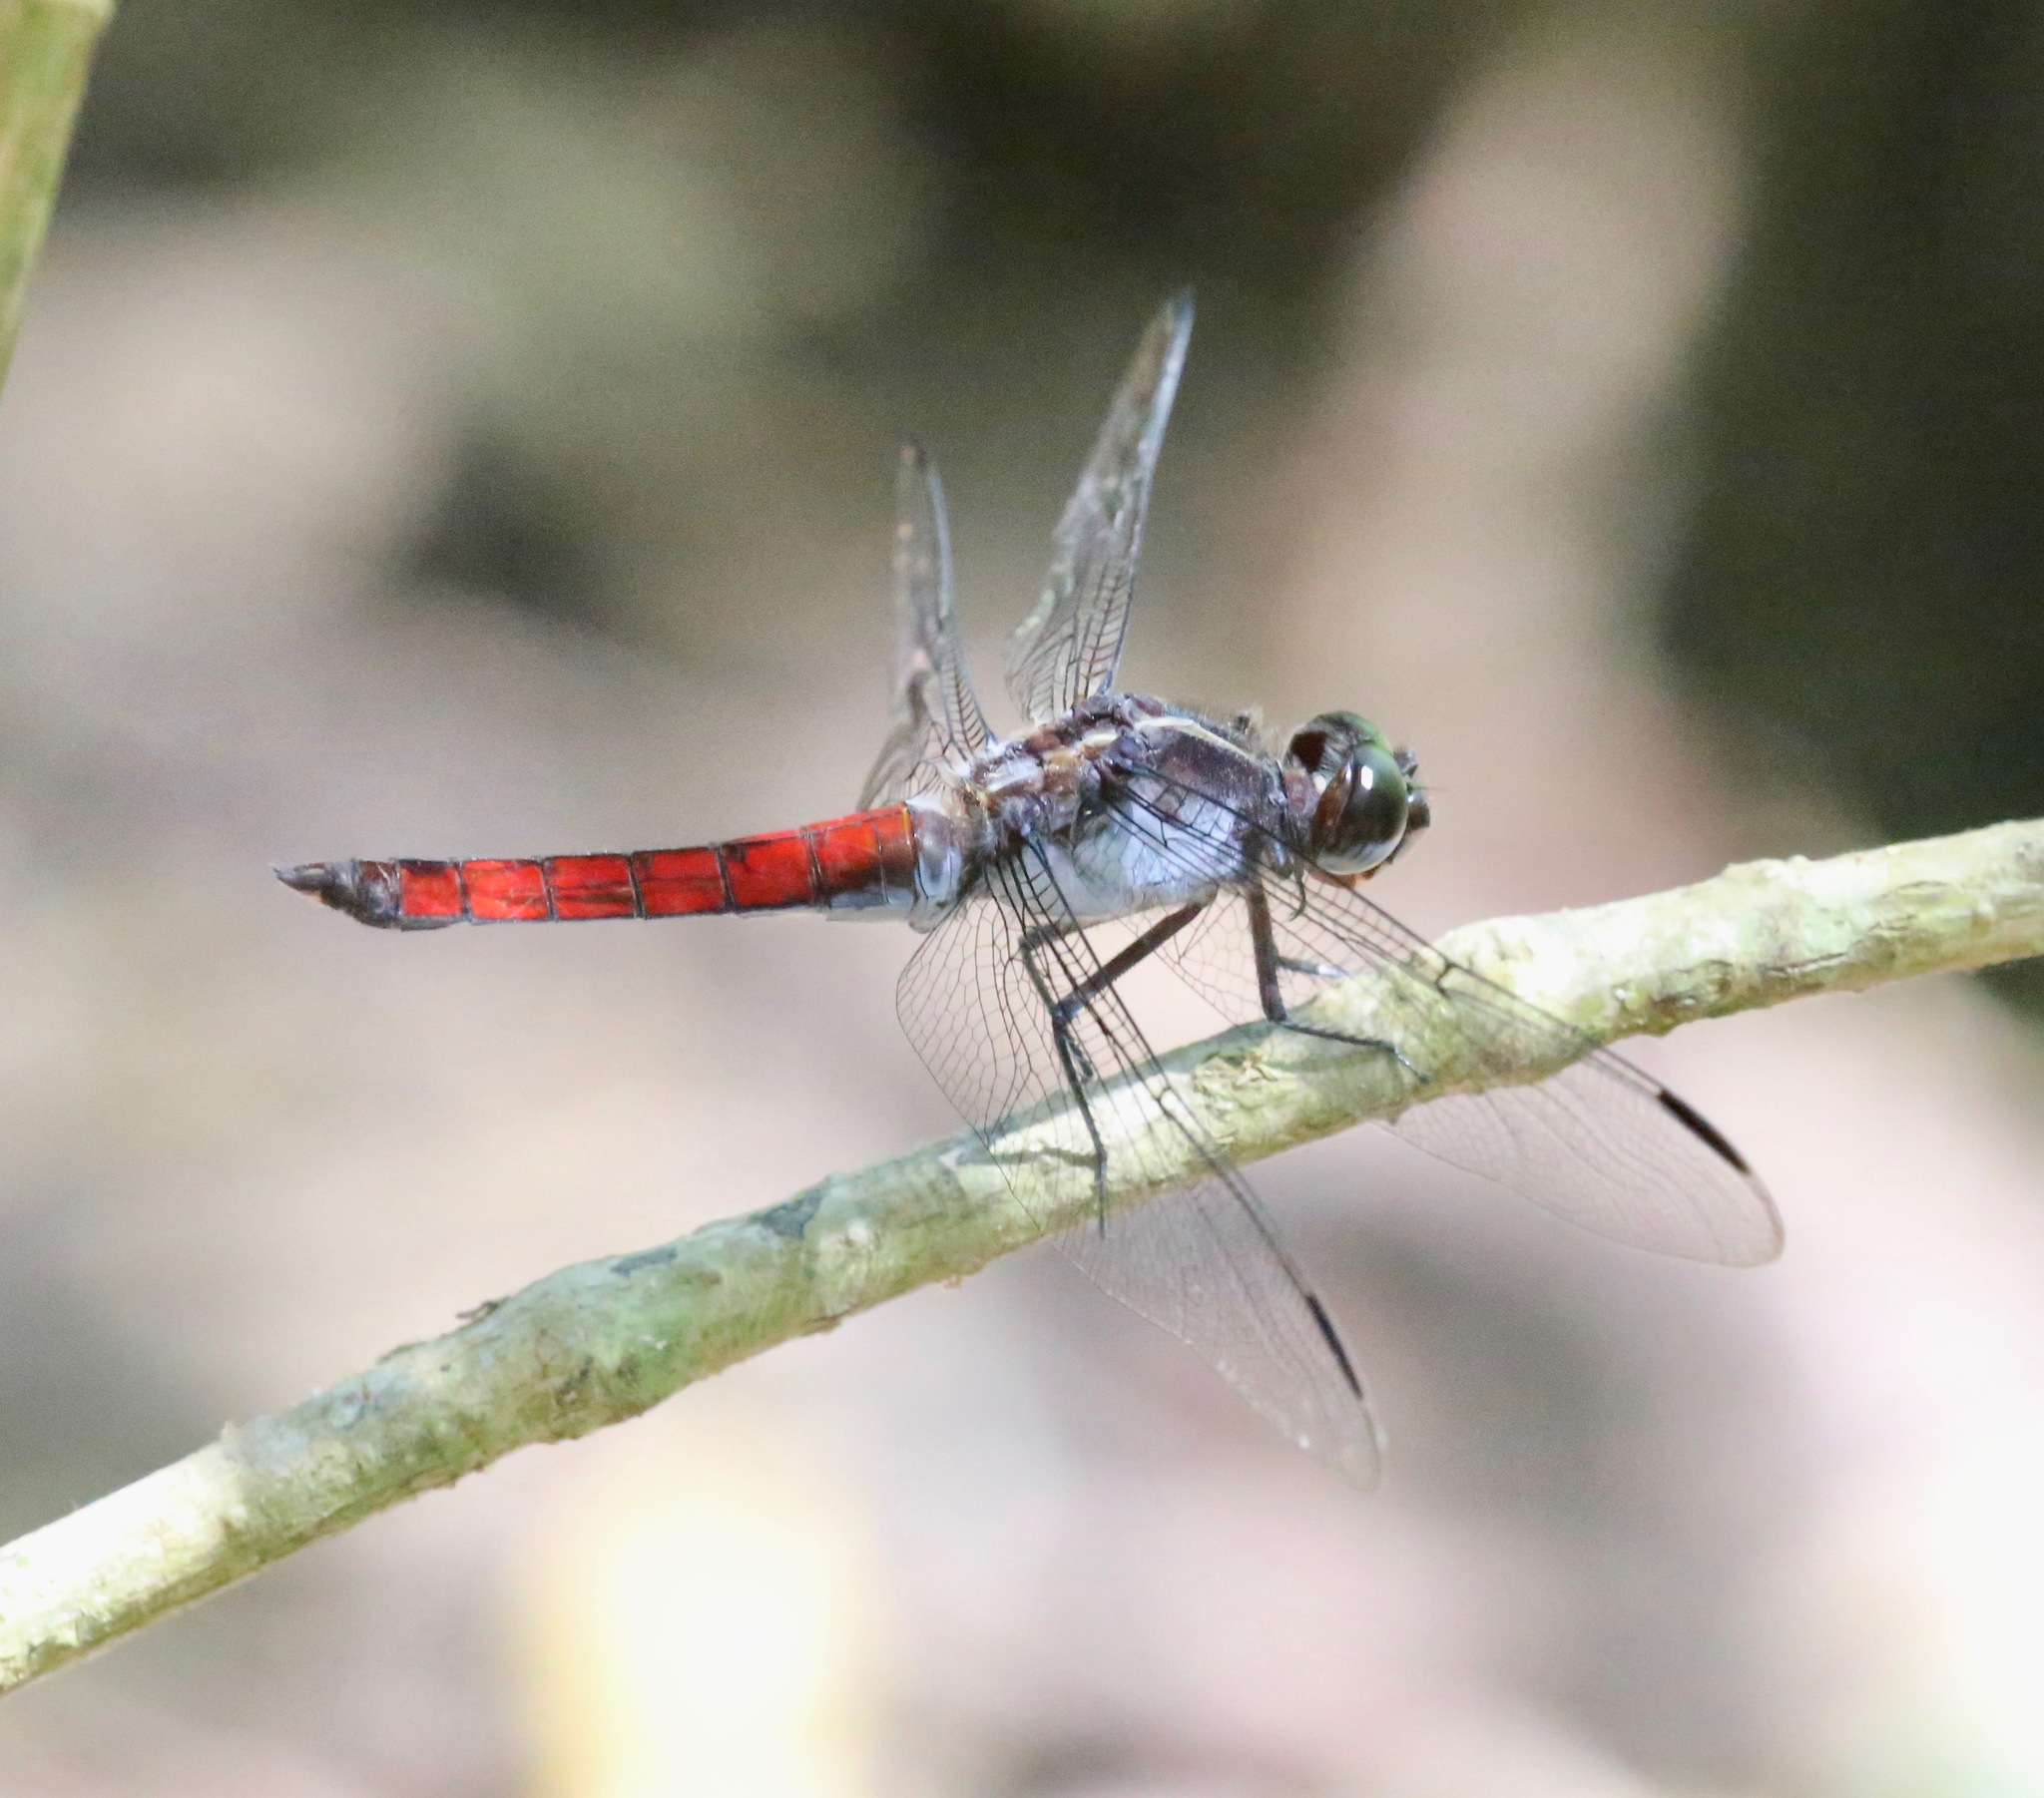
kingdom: Animalia
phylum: Arthropoda
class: Insecta
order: Odonata
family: Libellulidae
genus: Libellula
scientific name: Libellula herculea
